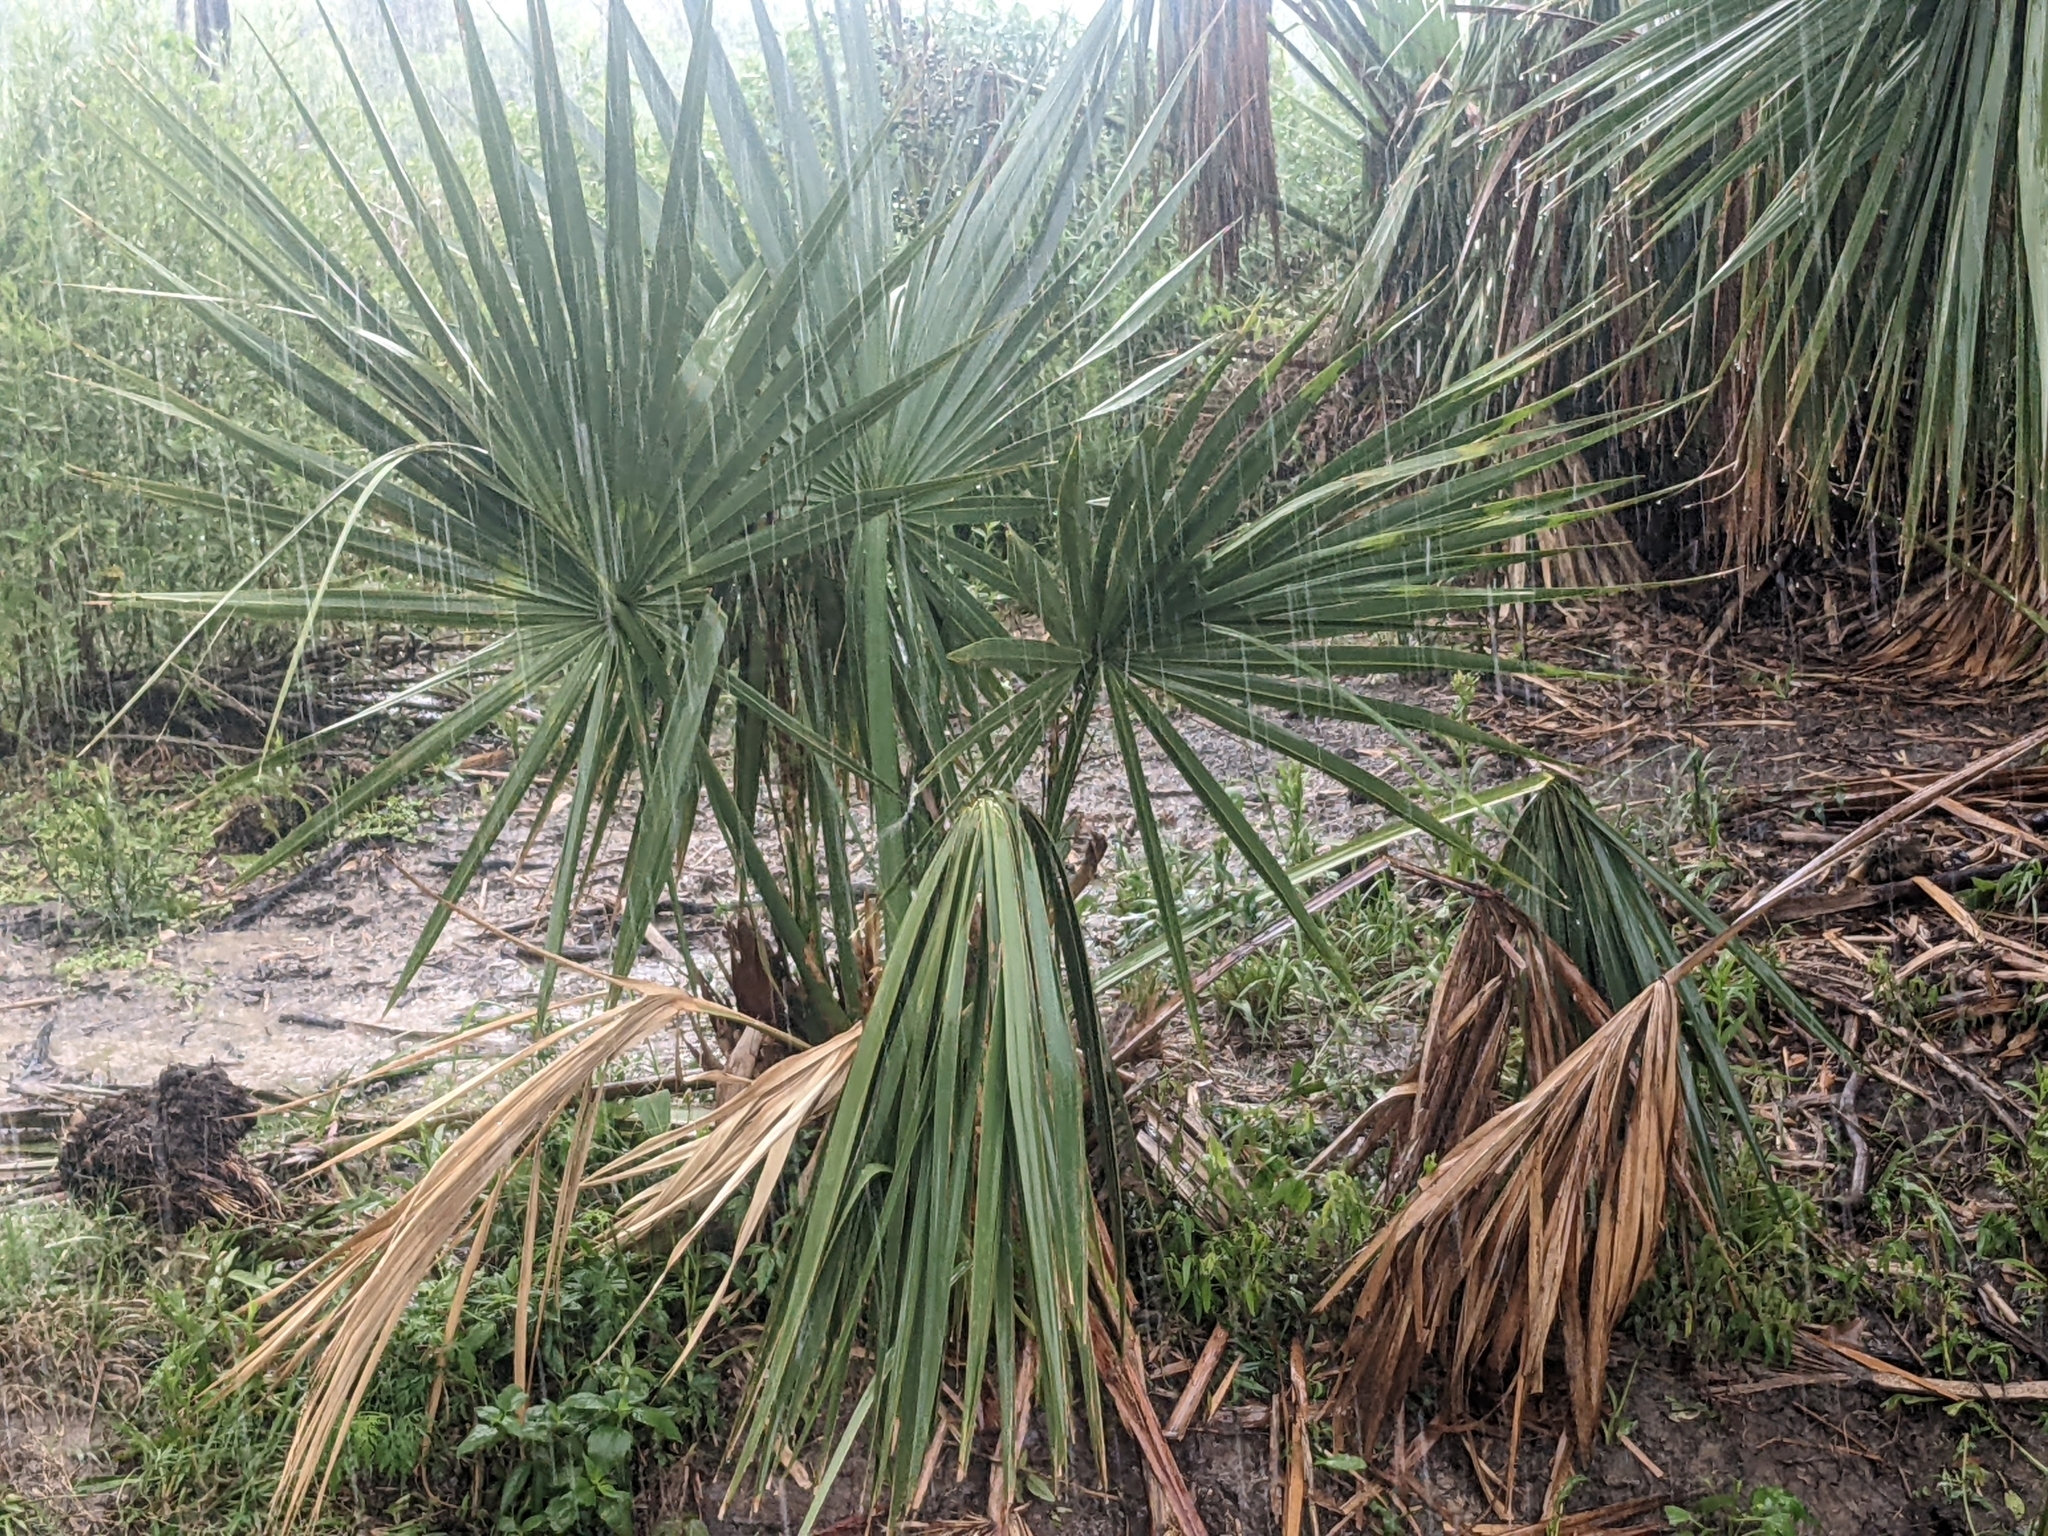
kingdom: Plantae
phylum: Tracheophyta
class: Liliopsida
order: Arecales
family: Arecaceae
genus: Sabal
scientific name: Sabal minor
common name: Dwarf palmetto
